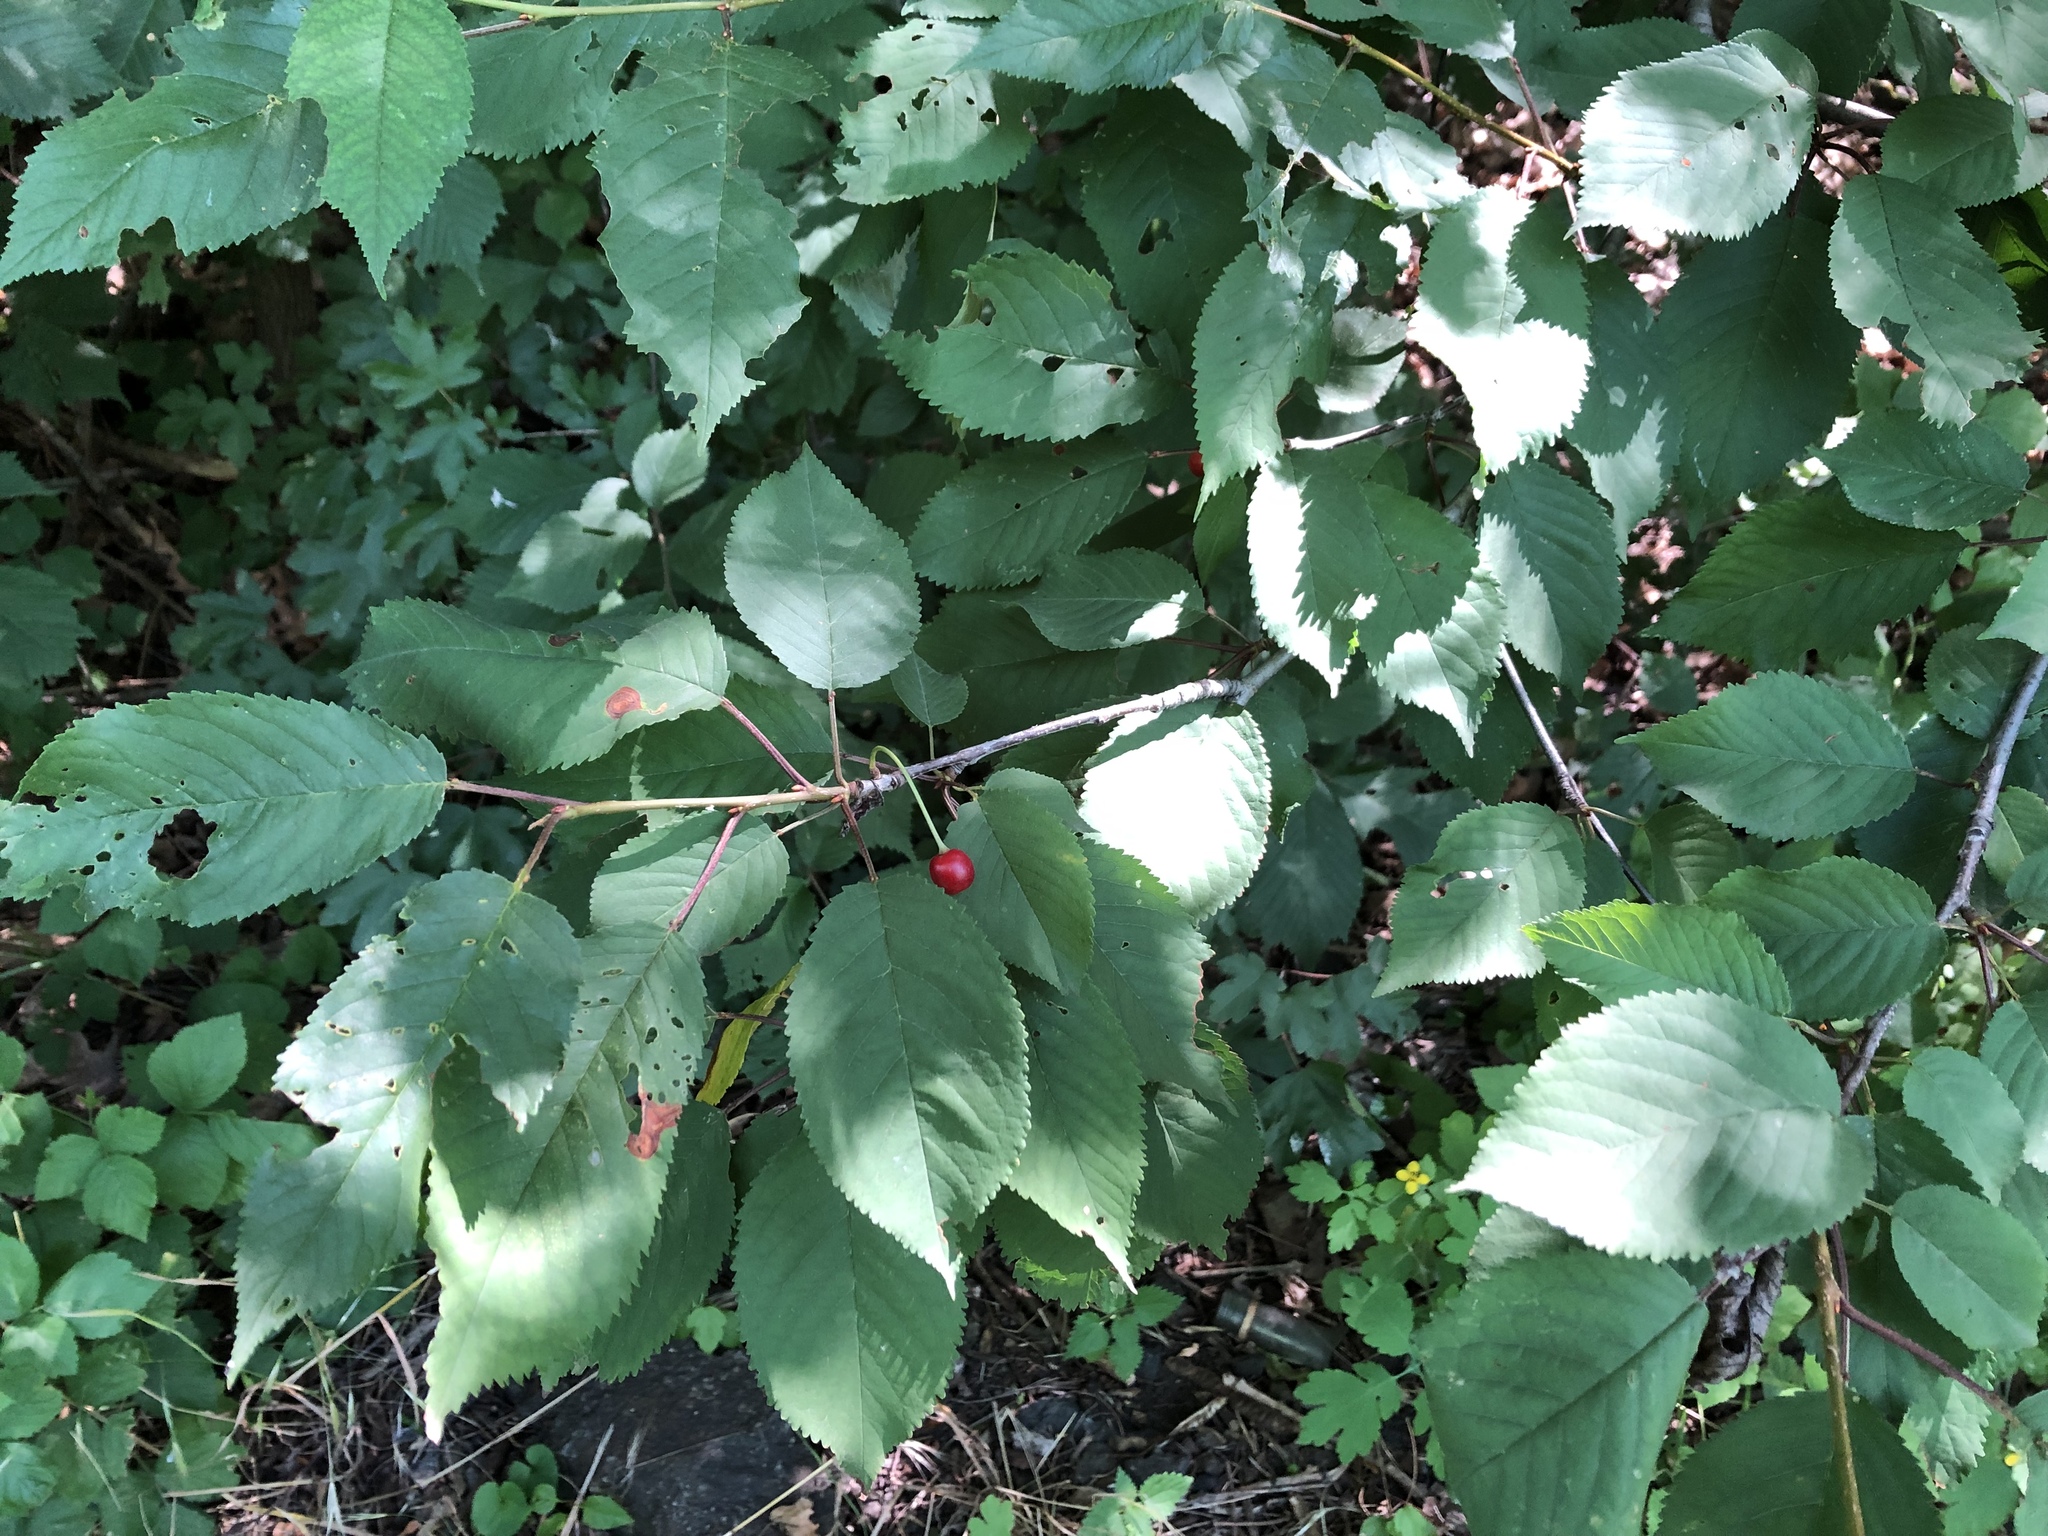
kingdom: Plantae
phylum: Tracheophyta
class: Magnoliopsida
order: Rosales
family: Rosaceae
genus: Prunus
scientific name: Prunus avium
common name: Sweet cherry
